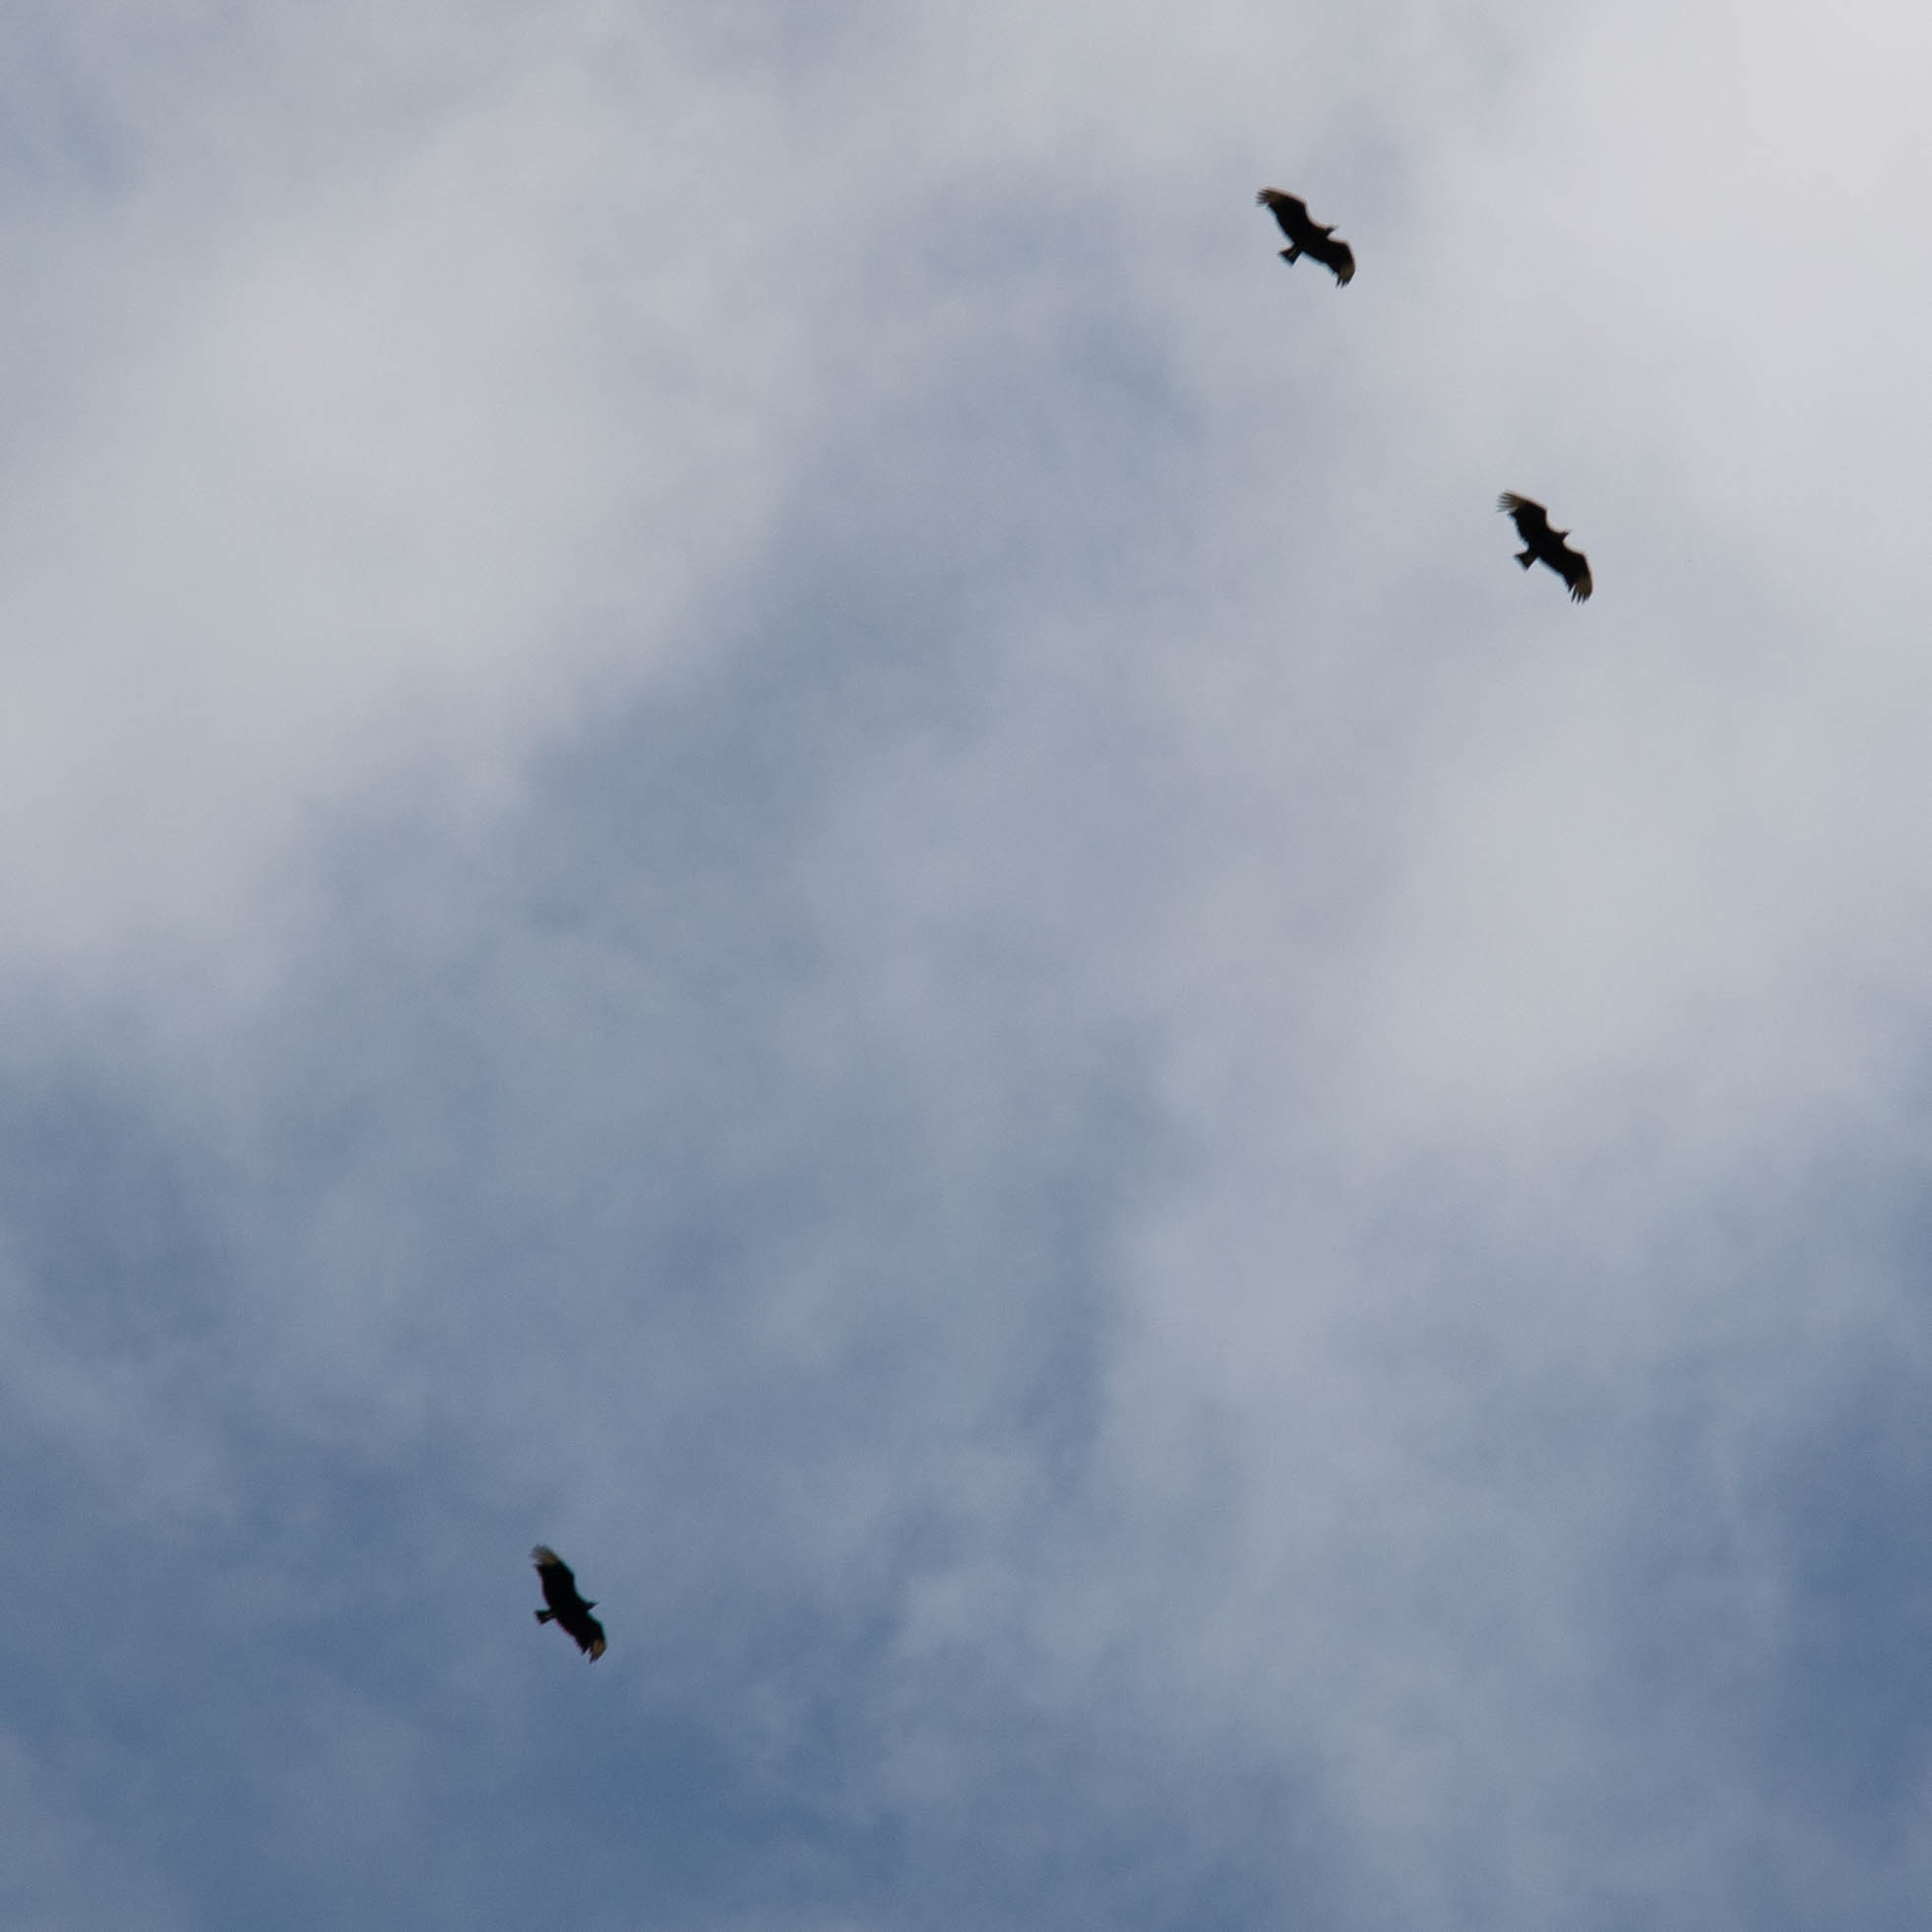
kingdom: Animalia
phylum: Chordata
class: Aves
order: Accipitriformes
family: Cathartidae
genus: Coragyps
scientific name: Coragyps atratus
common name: Black vulture
